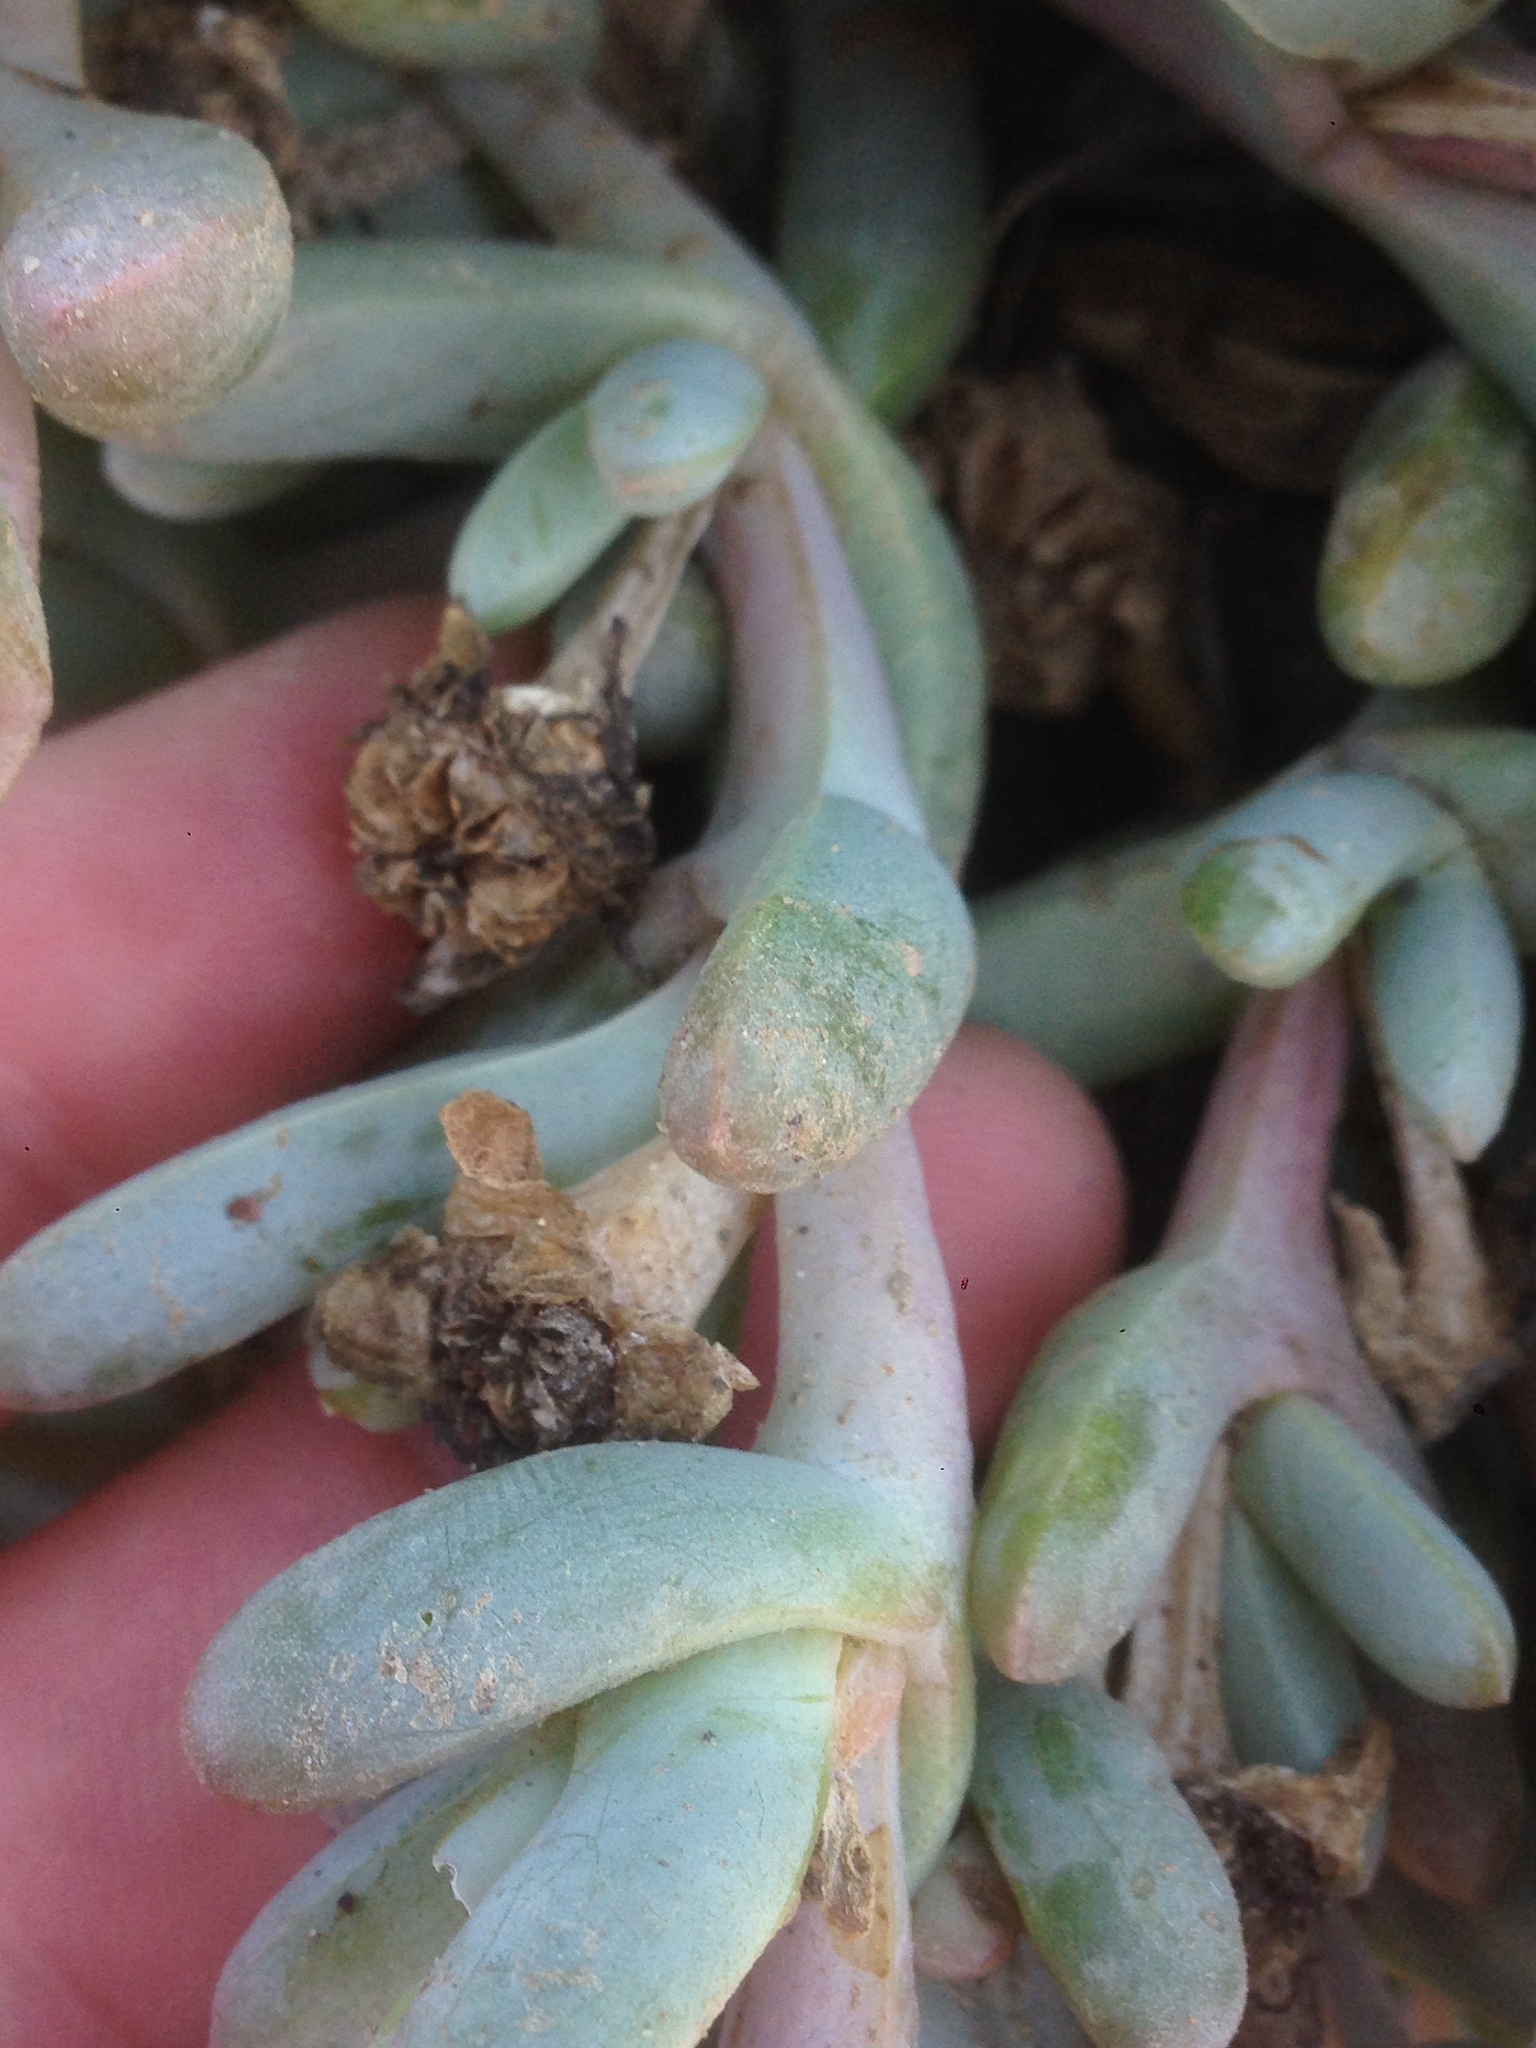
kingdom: Plantae
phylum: Tracheophyta
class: Magnoliopsida
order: Caryophyllales
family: Aizoaceae
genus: Malephora
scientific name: Malephora crocea
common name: Coppery mesemb
